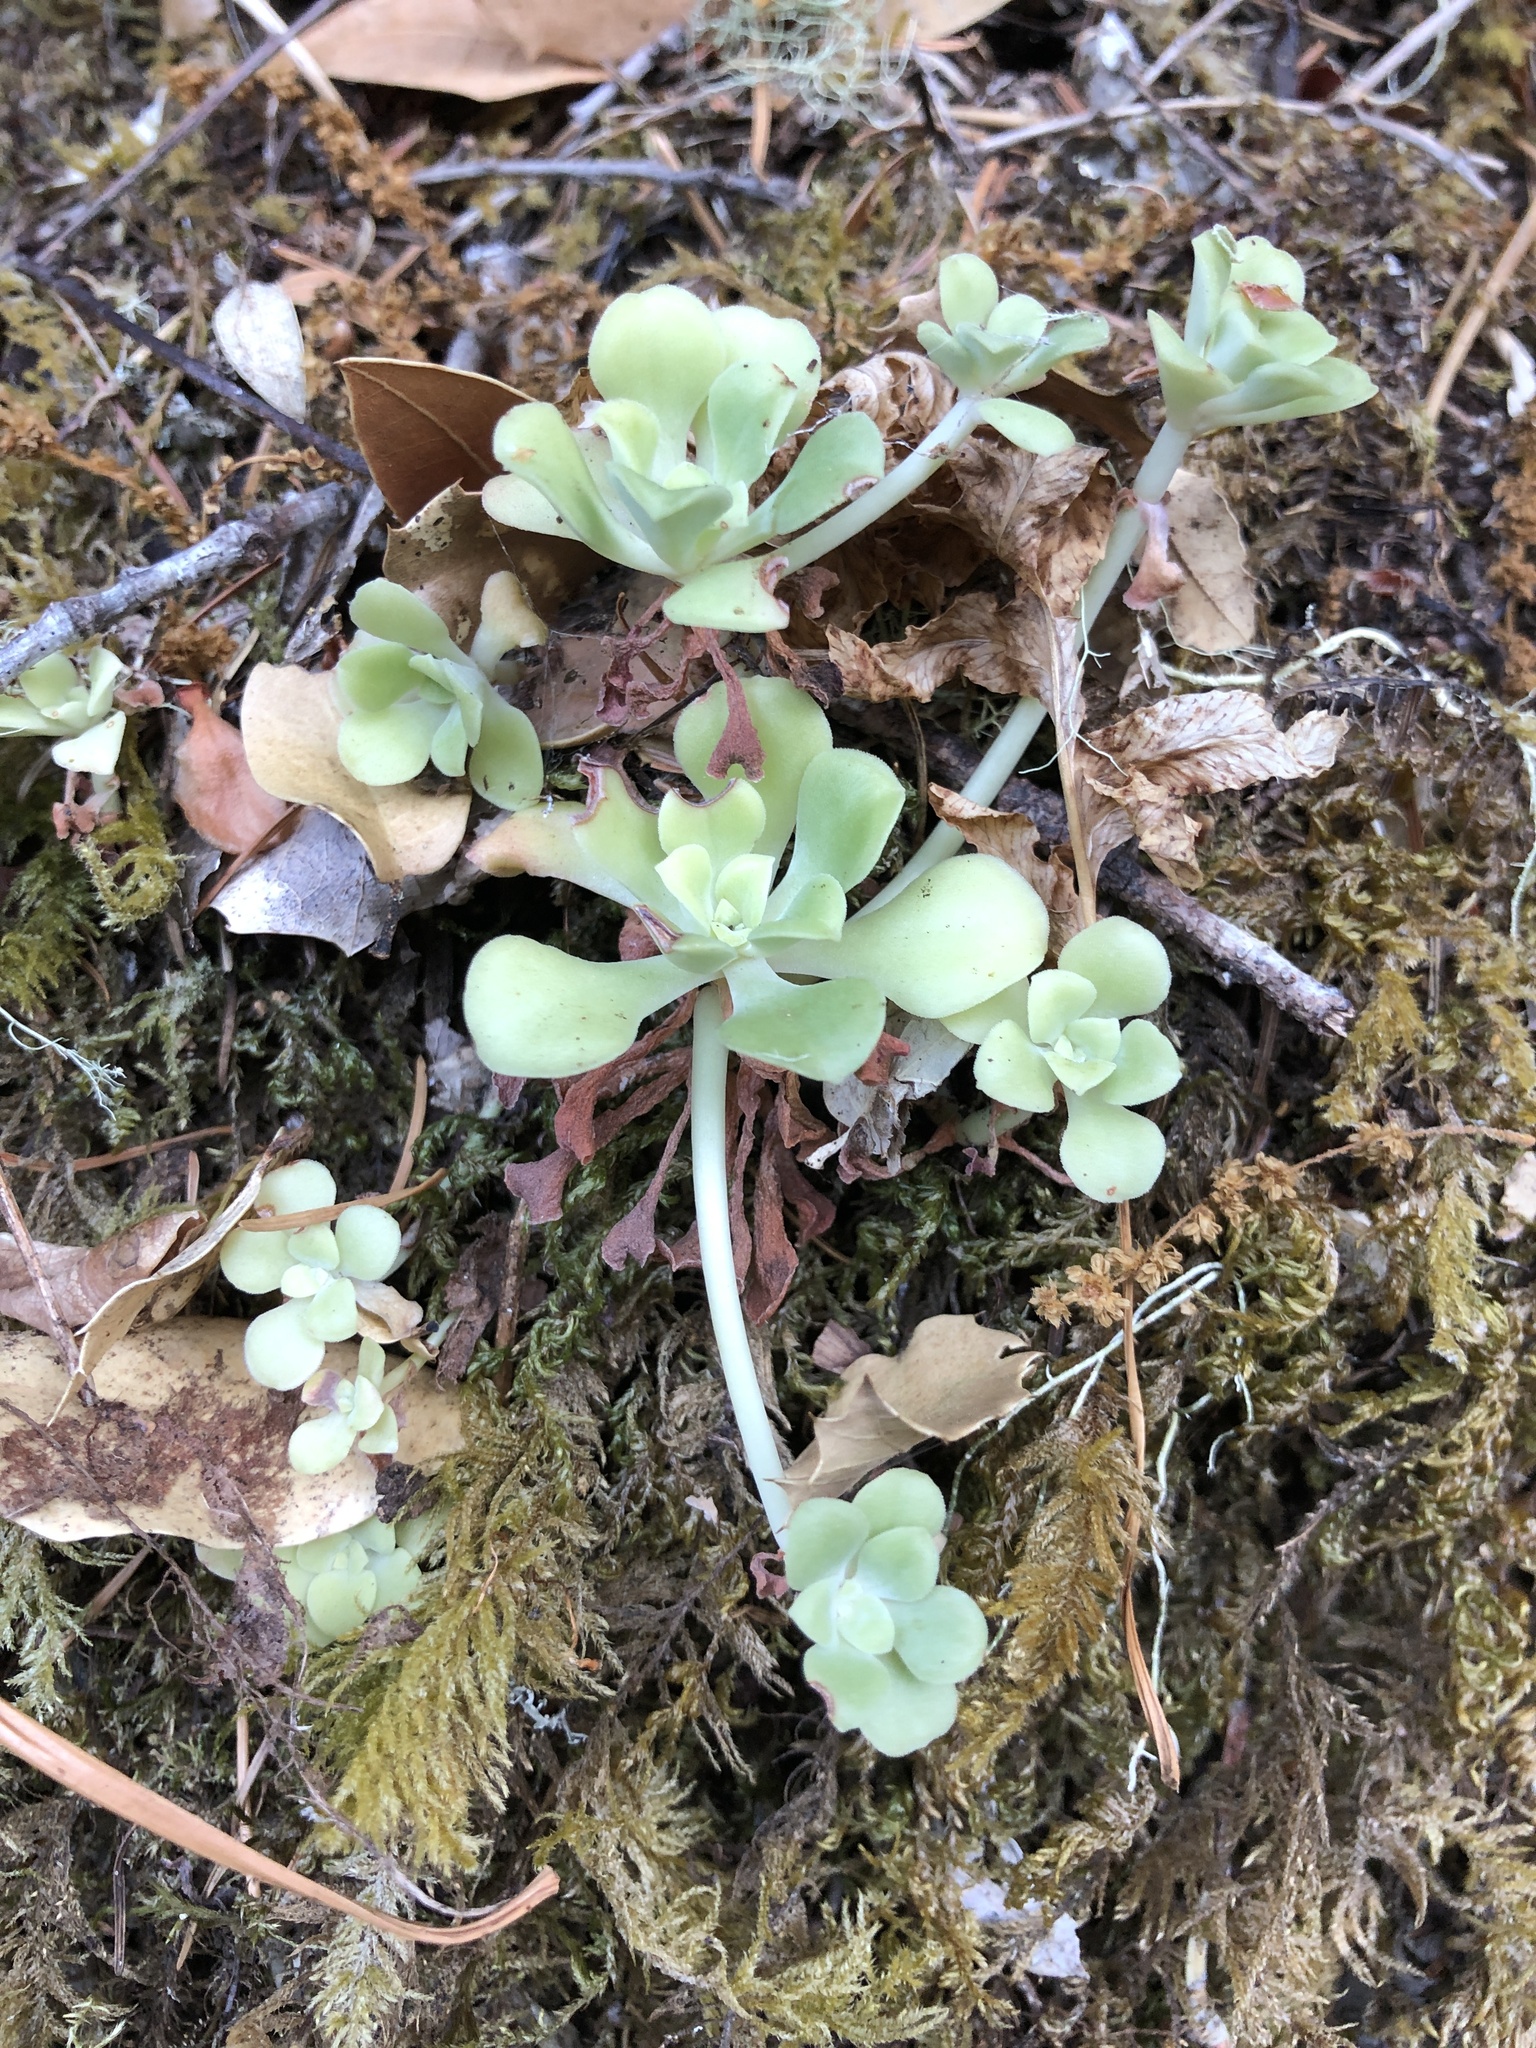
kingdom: Plantae
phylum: Tracheophyta
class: Magnoliopsida
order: Saxifragales
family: Crassulaceae
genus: Sedum
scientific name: Sedum spathulifolium
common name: Colorado stonecrop
